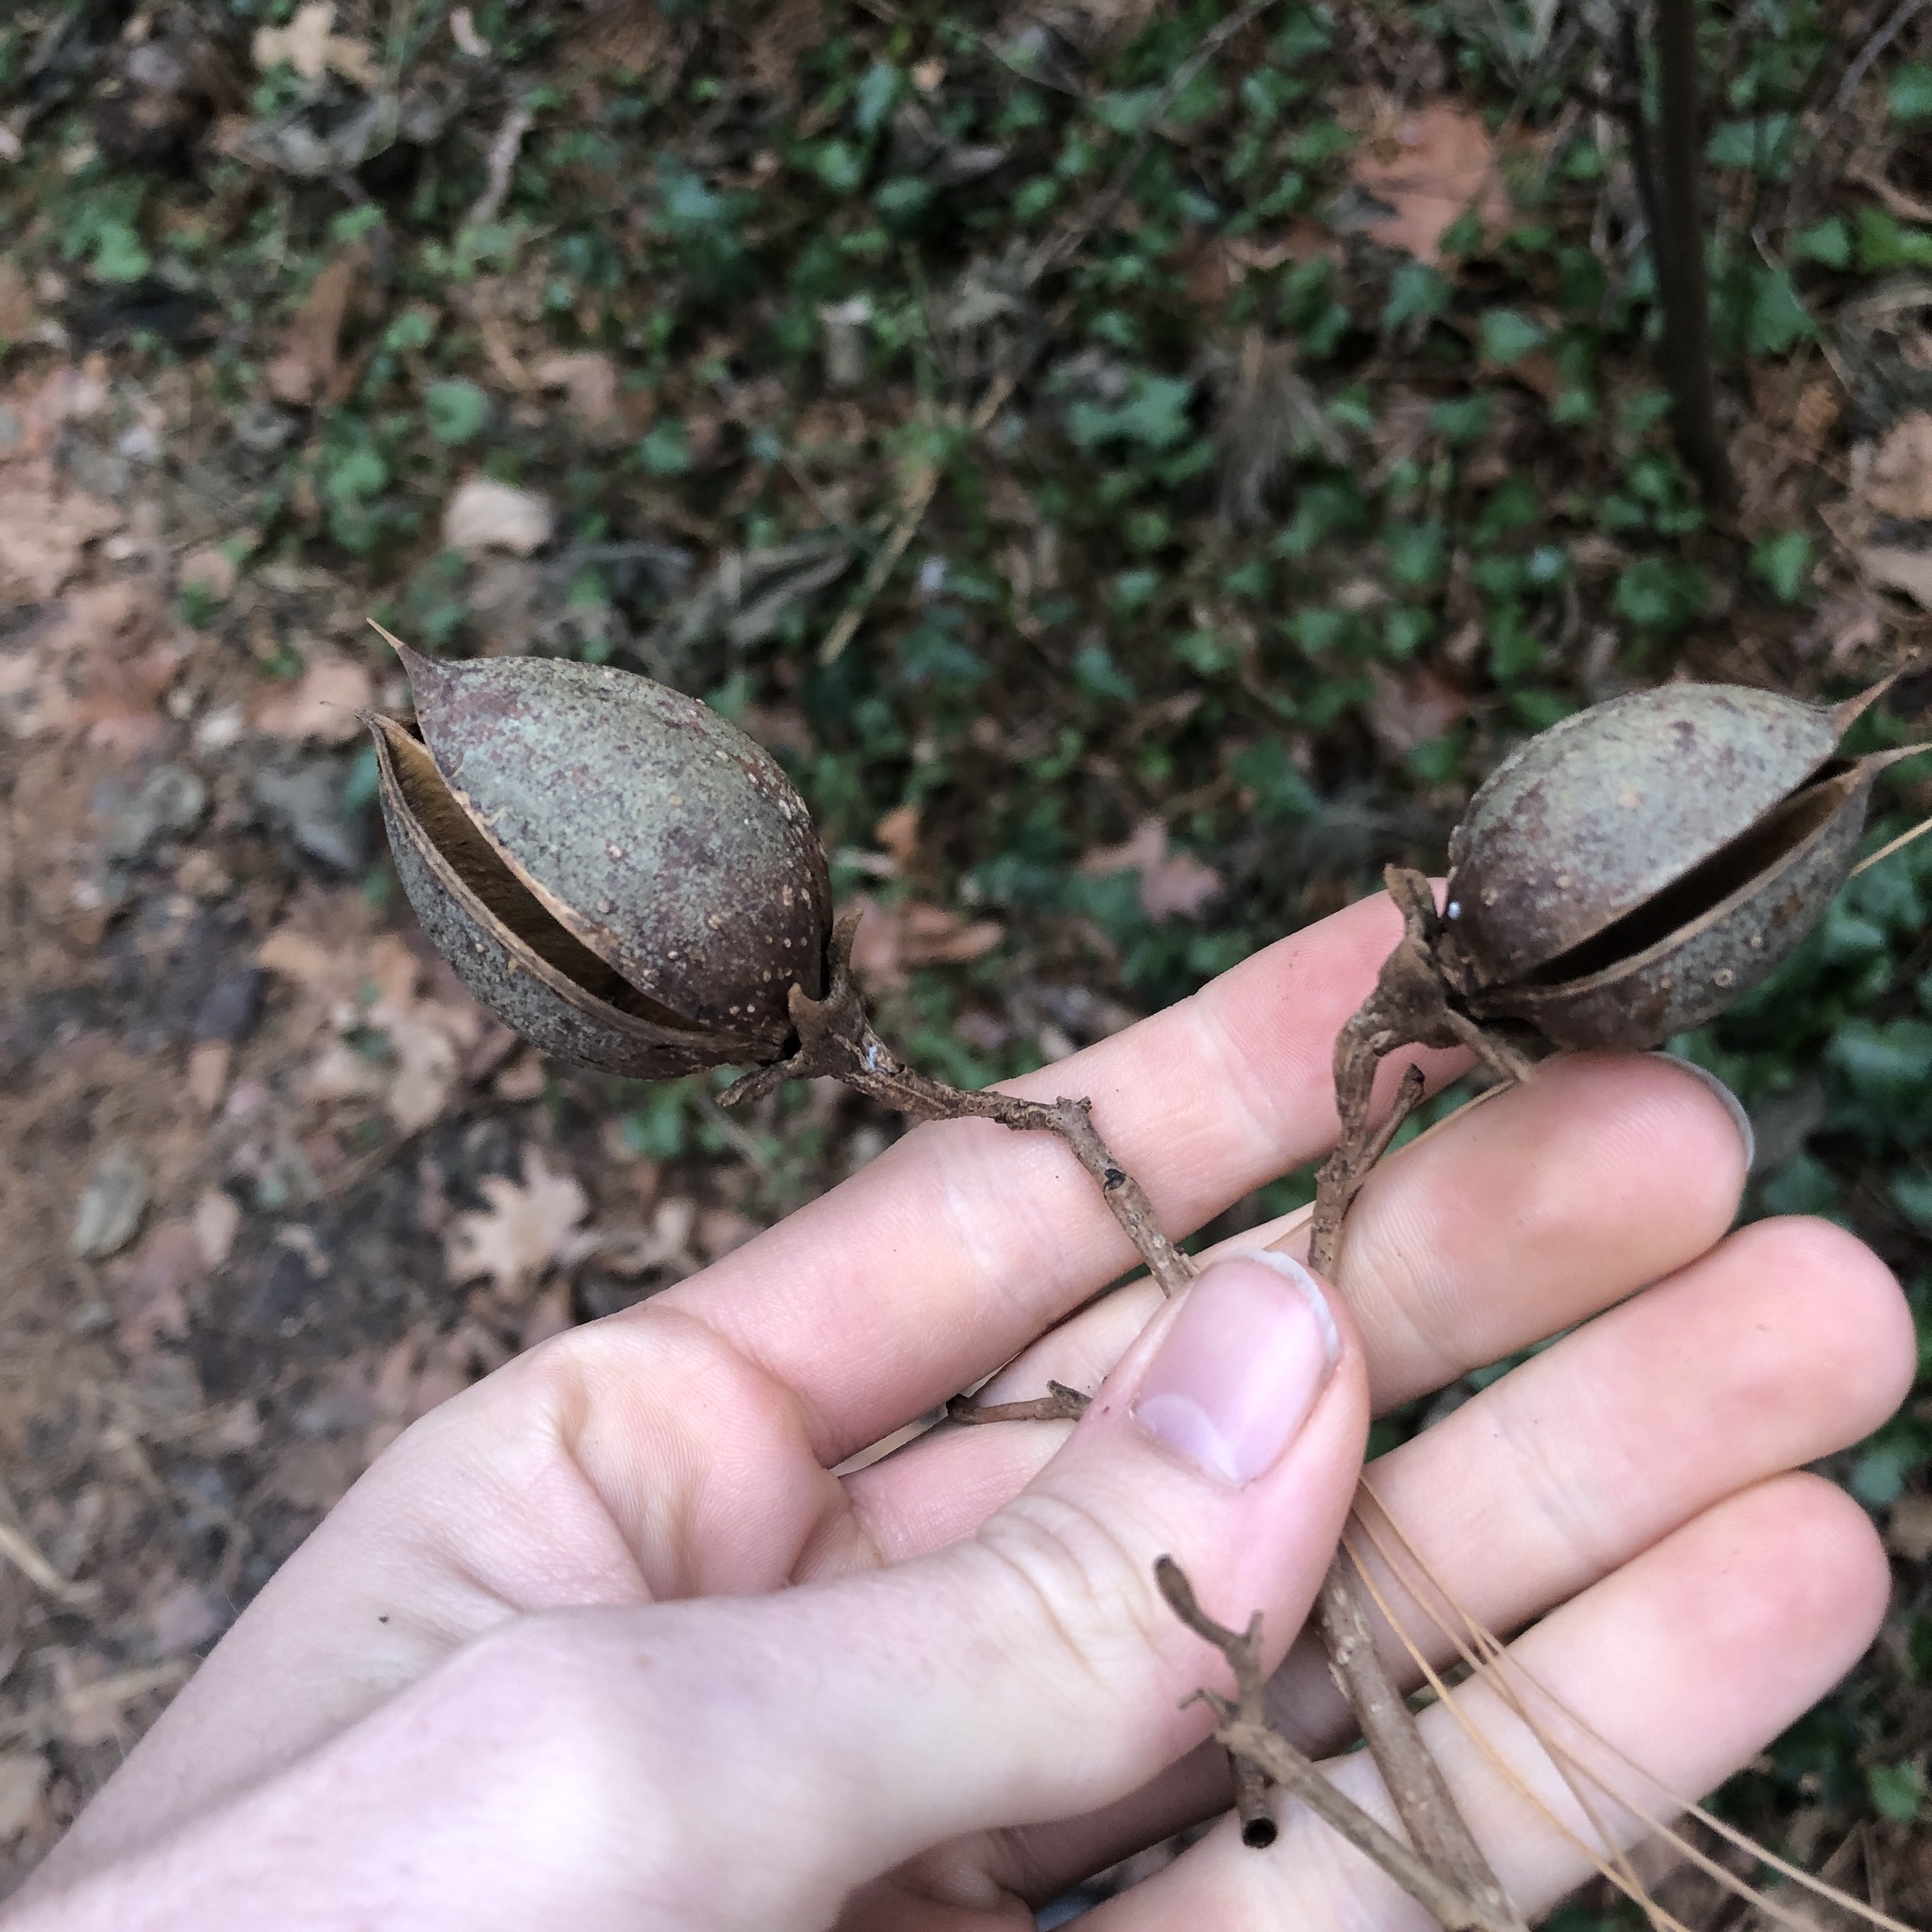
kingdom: Plantae
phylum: Tracheophyta
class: Magnoliopsida
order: Lamiales
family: Paulowniaceae
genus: Paulownia
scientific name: Paulownia tomentosa
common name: Foxglove-tree
